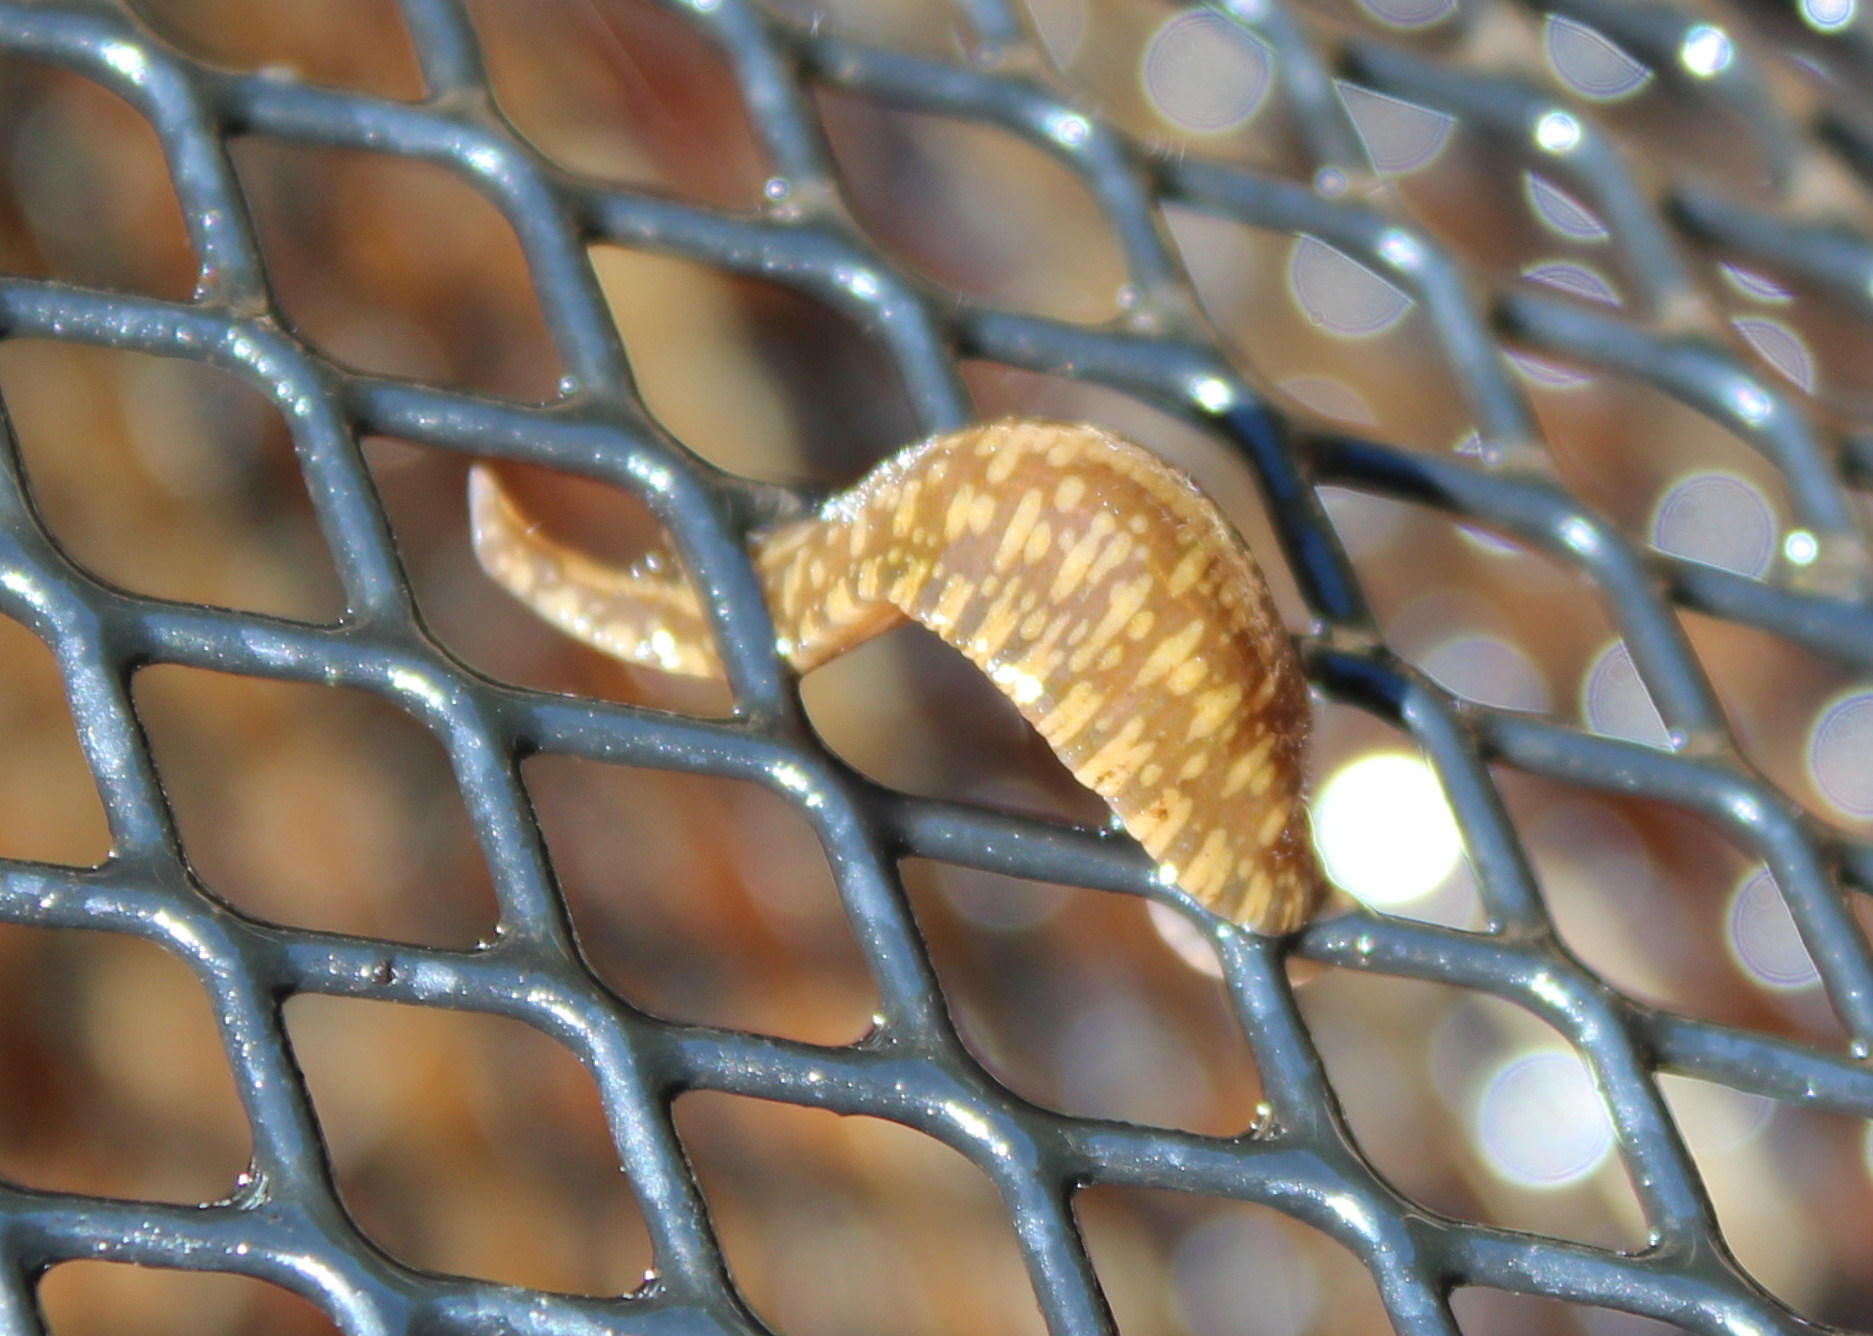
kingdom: Animalia
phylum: Annelida
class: Clitellata
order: Rhynchobdellida
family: Glossiphoniidae
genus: Placobdella
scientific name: Placobdella parasitica
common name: Smooth turtle leech
